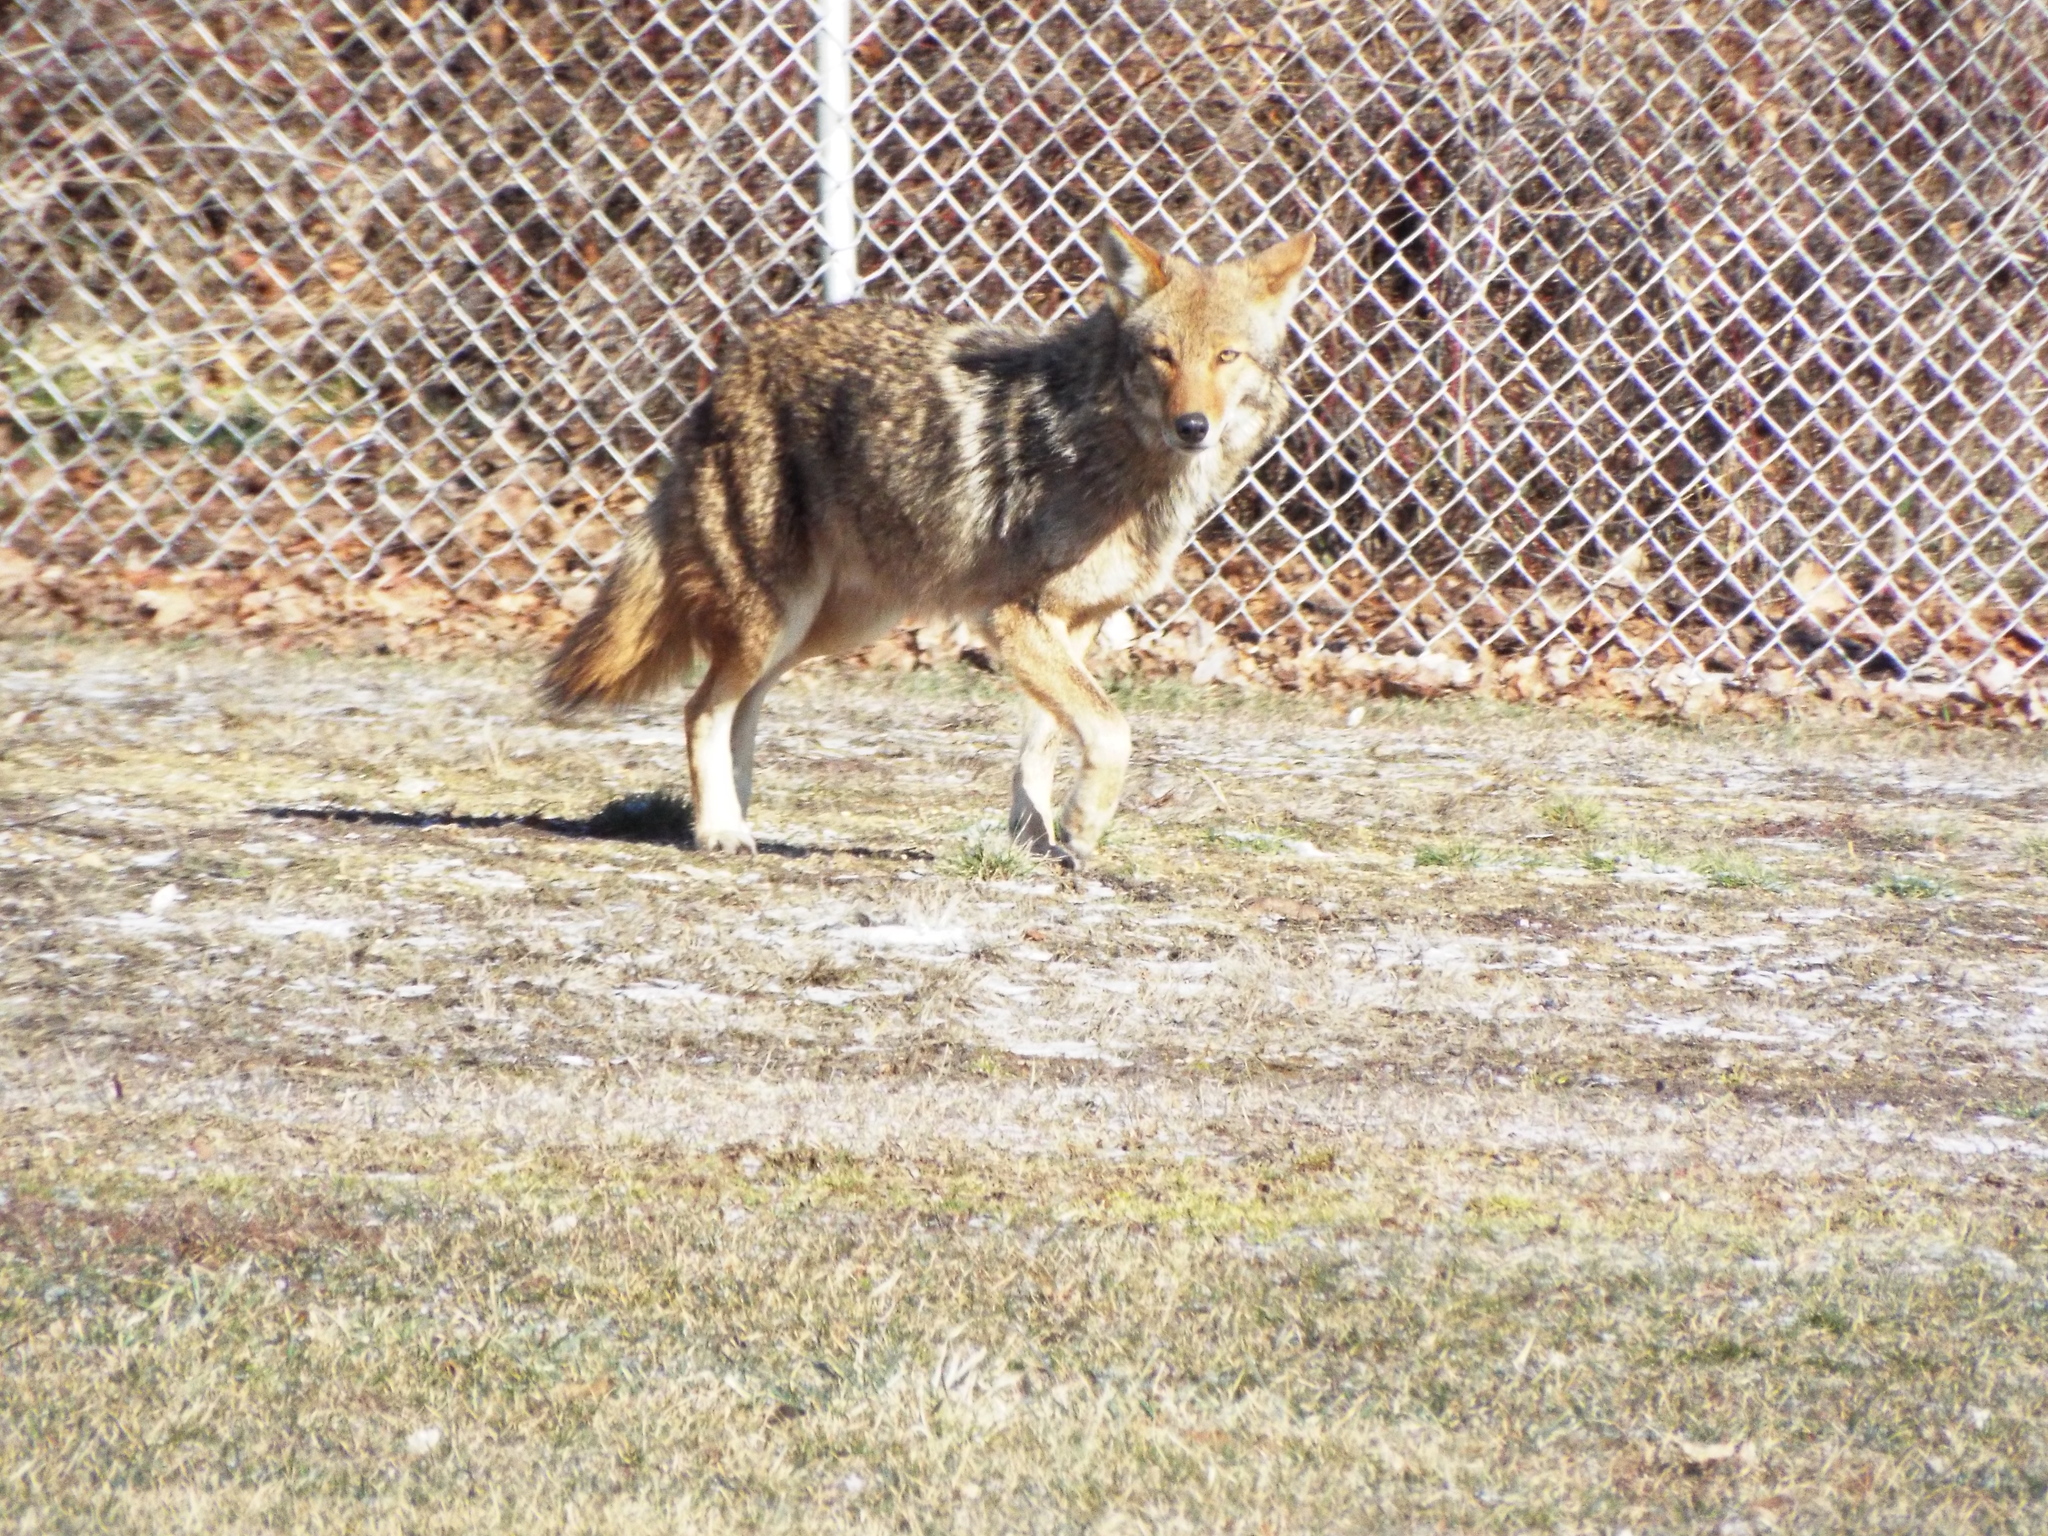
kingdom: Animalia
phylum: Chordata
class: Mammalia
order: Carnivora
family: Canidae
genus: Canis
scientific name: Canis latrans
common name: Coyote
